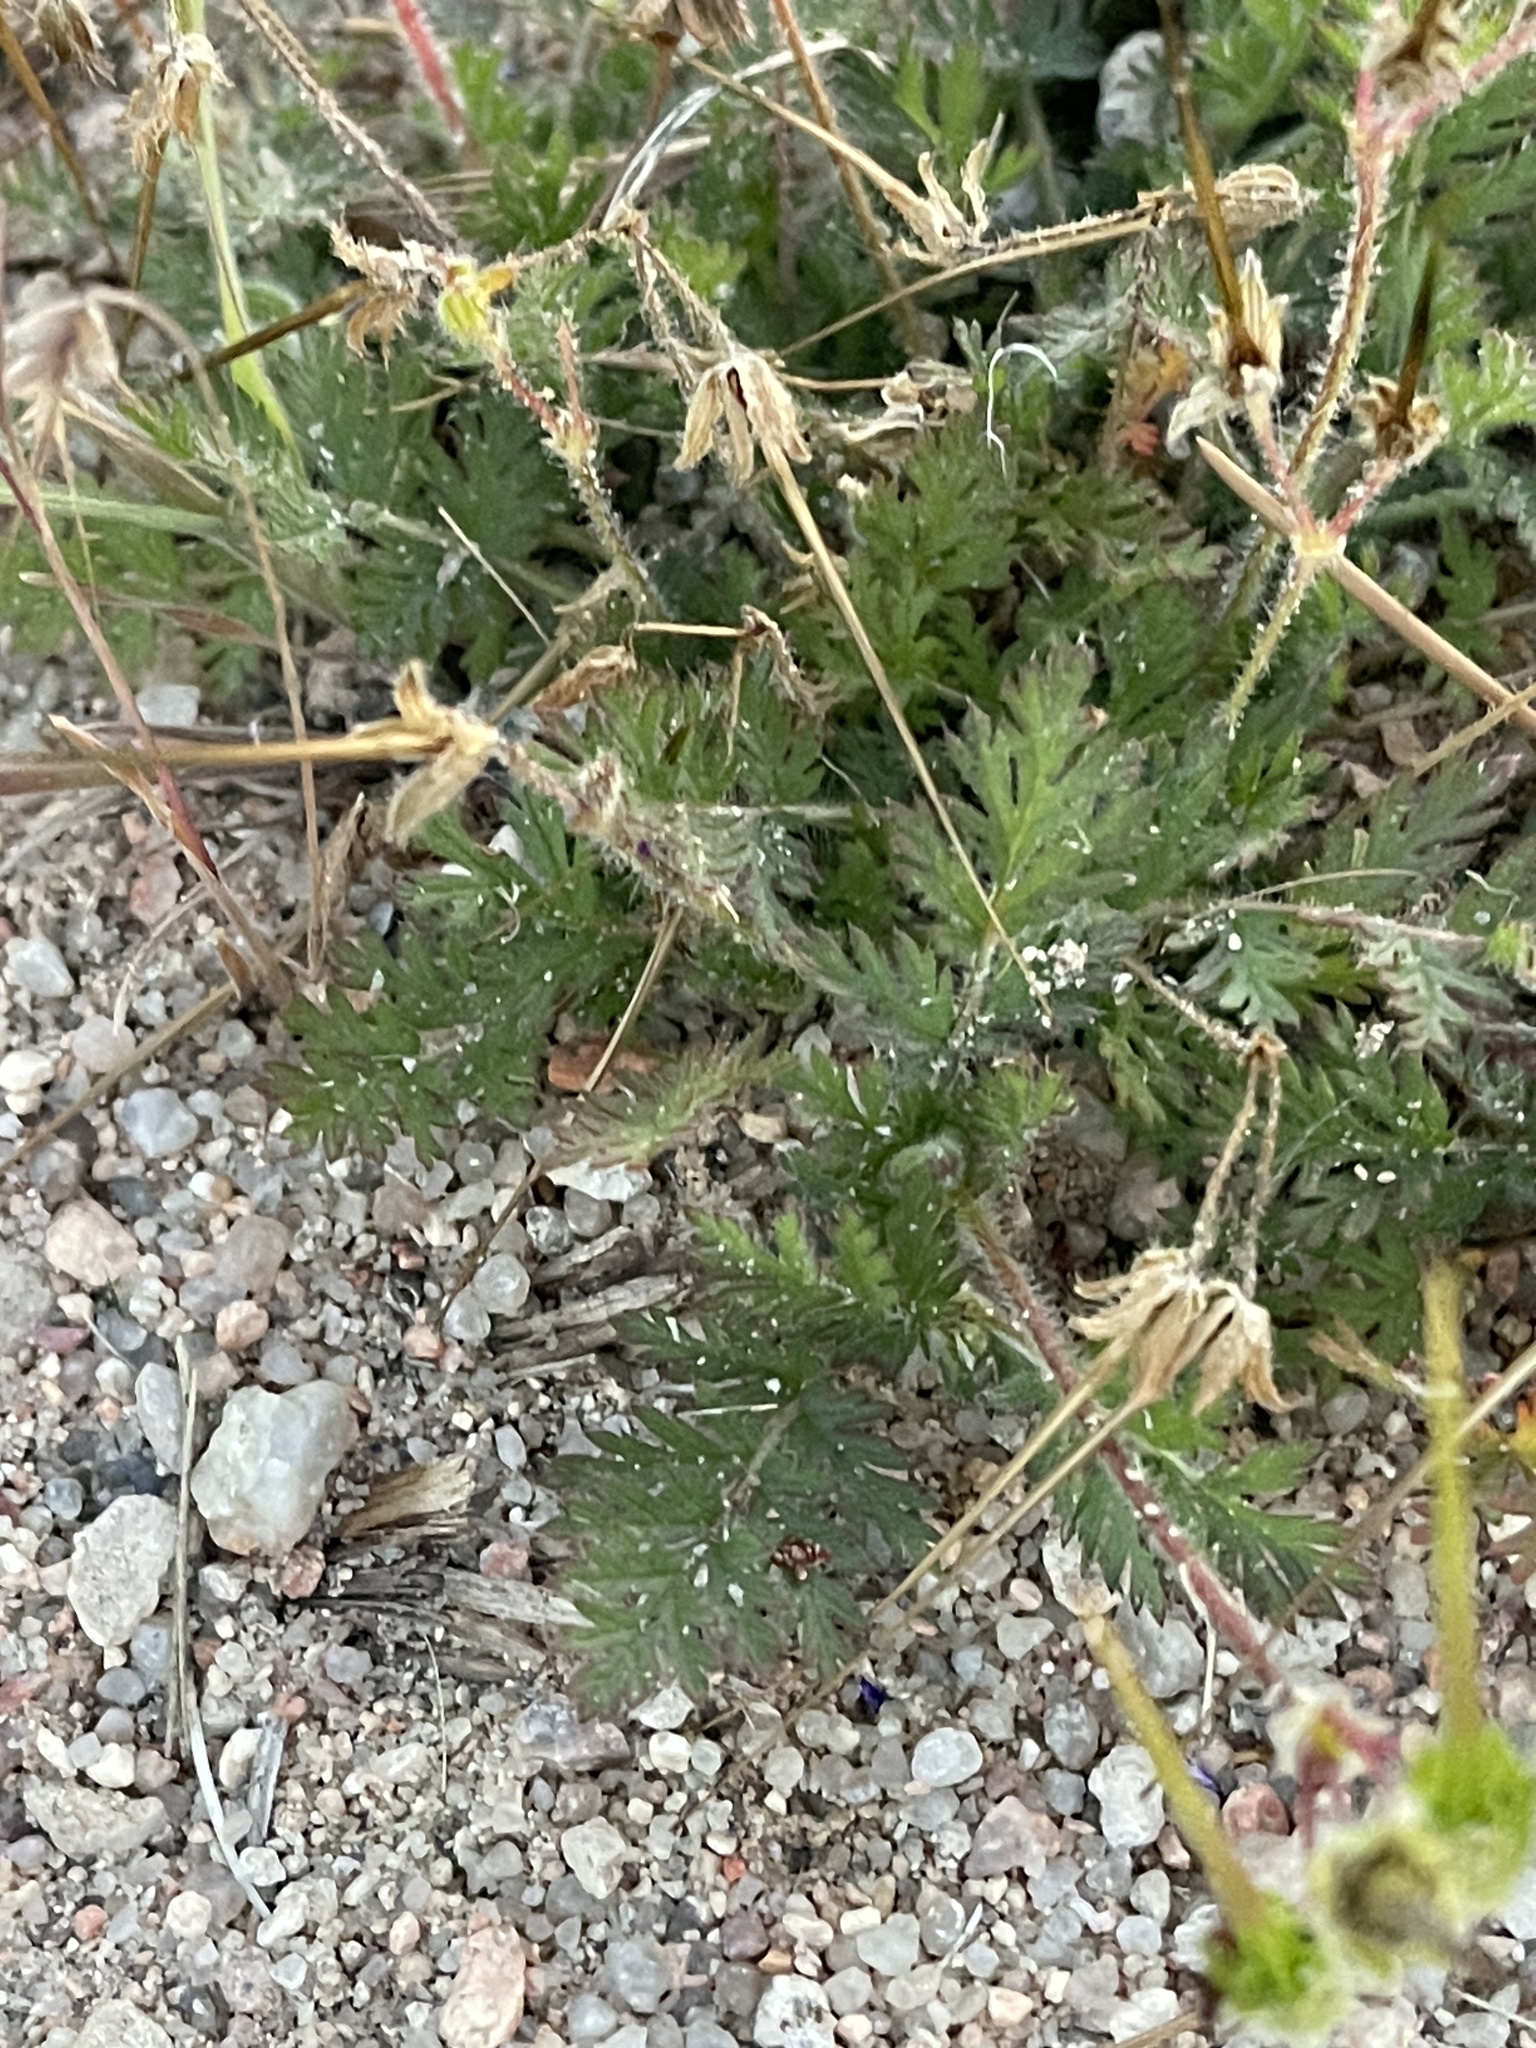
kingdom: Plantae
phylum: Tracheophyta
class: Magnoliopsida
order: Geraniales
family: Geraniaceae
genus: Erodium
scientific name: Erodium cicutarium
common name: Common stork's-bill
